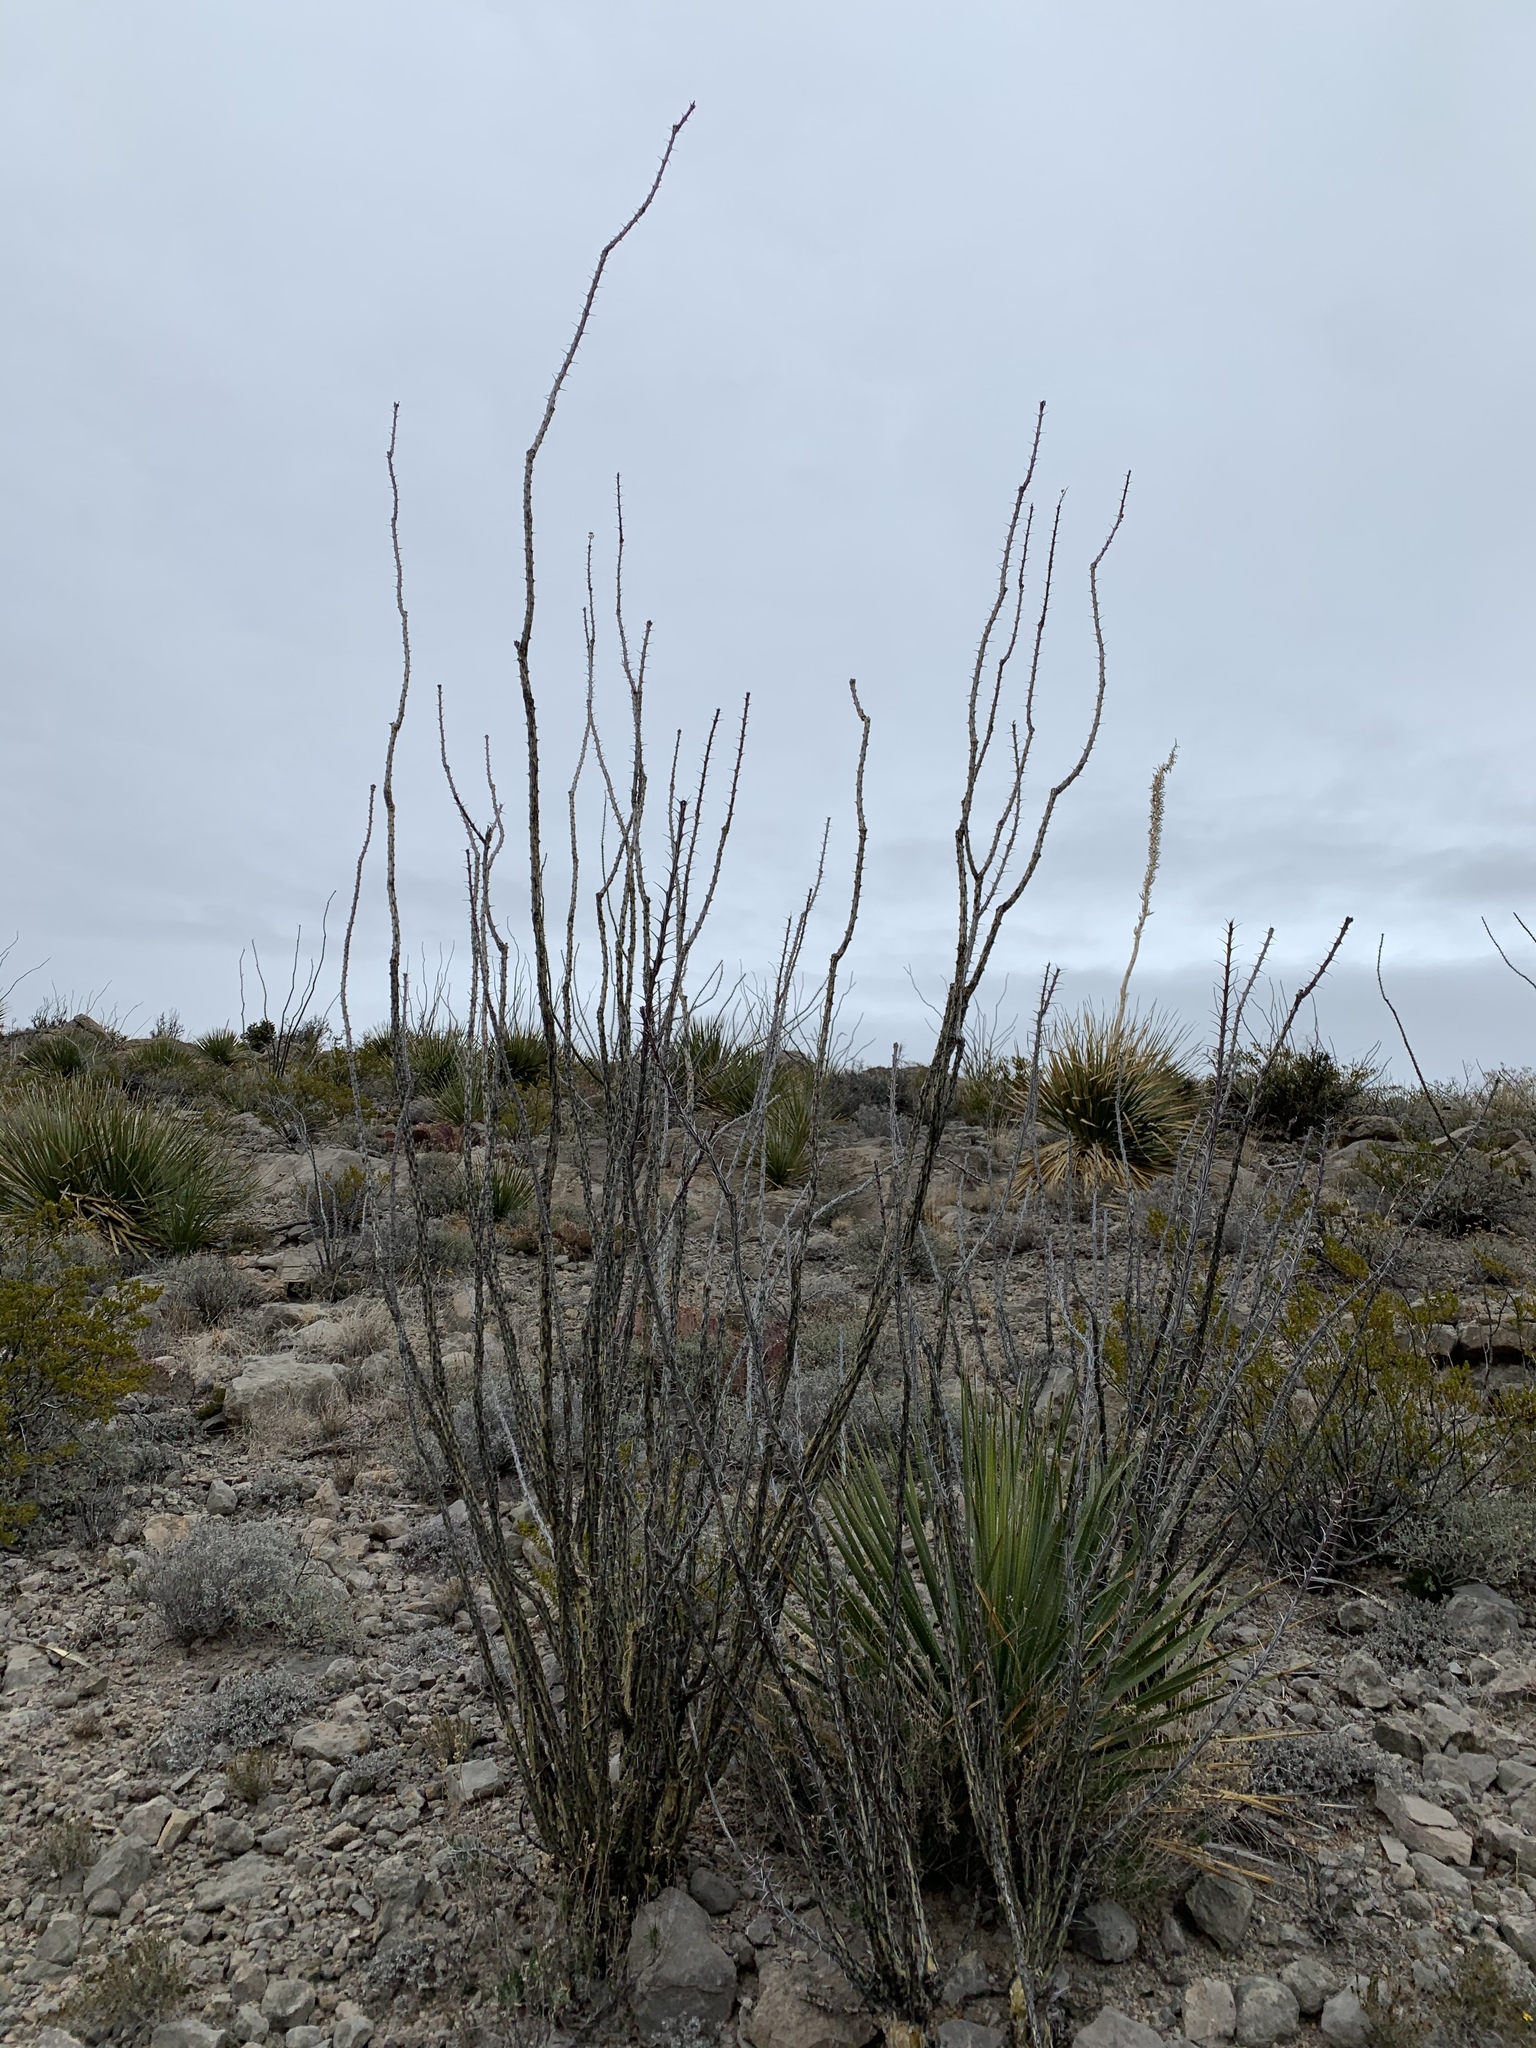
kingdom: Plantae
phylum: Tracheophyta
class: Magnoliopsida
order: Ericales
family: Fouquieriaceae
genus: Fouquieria
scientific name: Fouquieria splendens
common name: Vine-cactus
